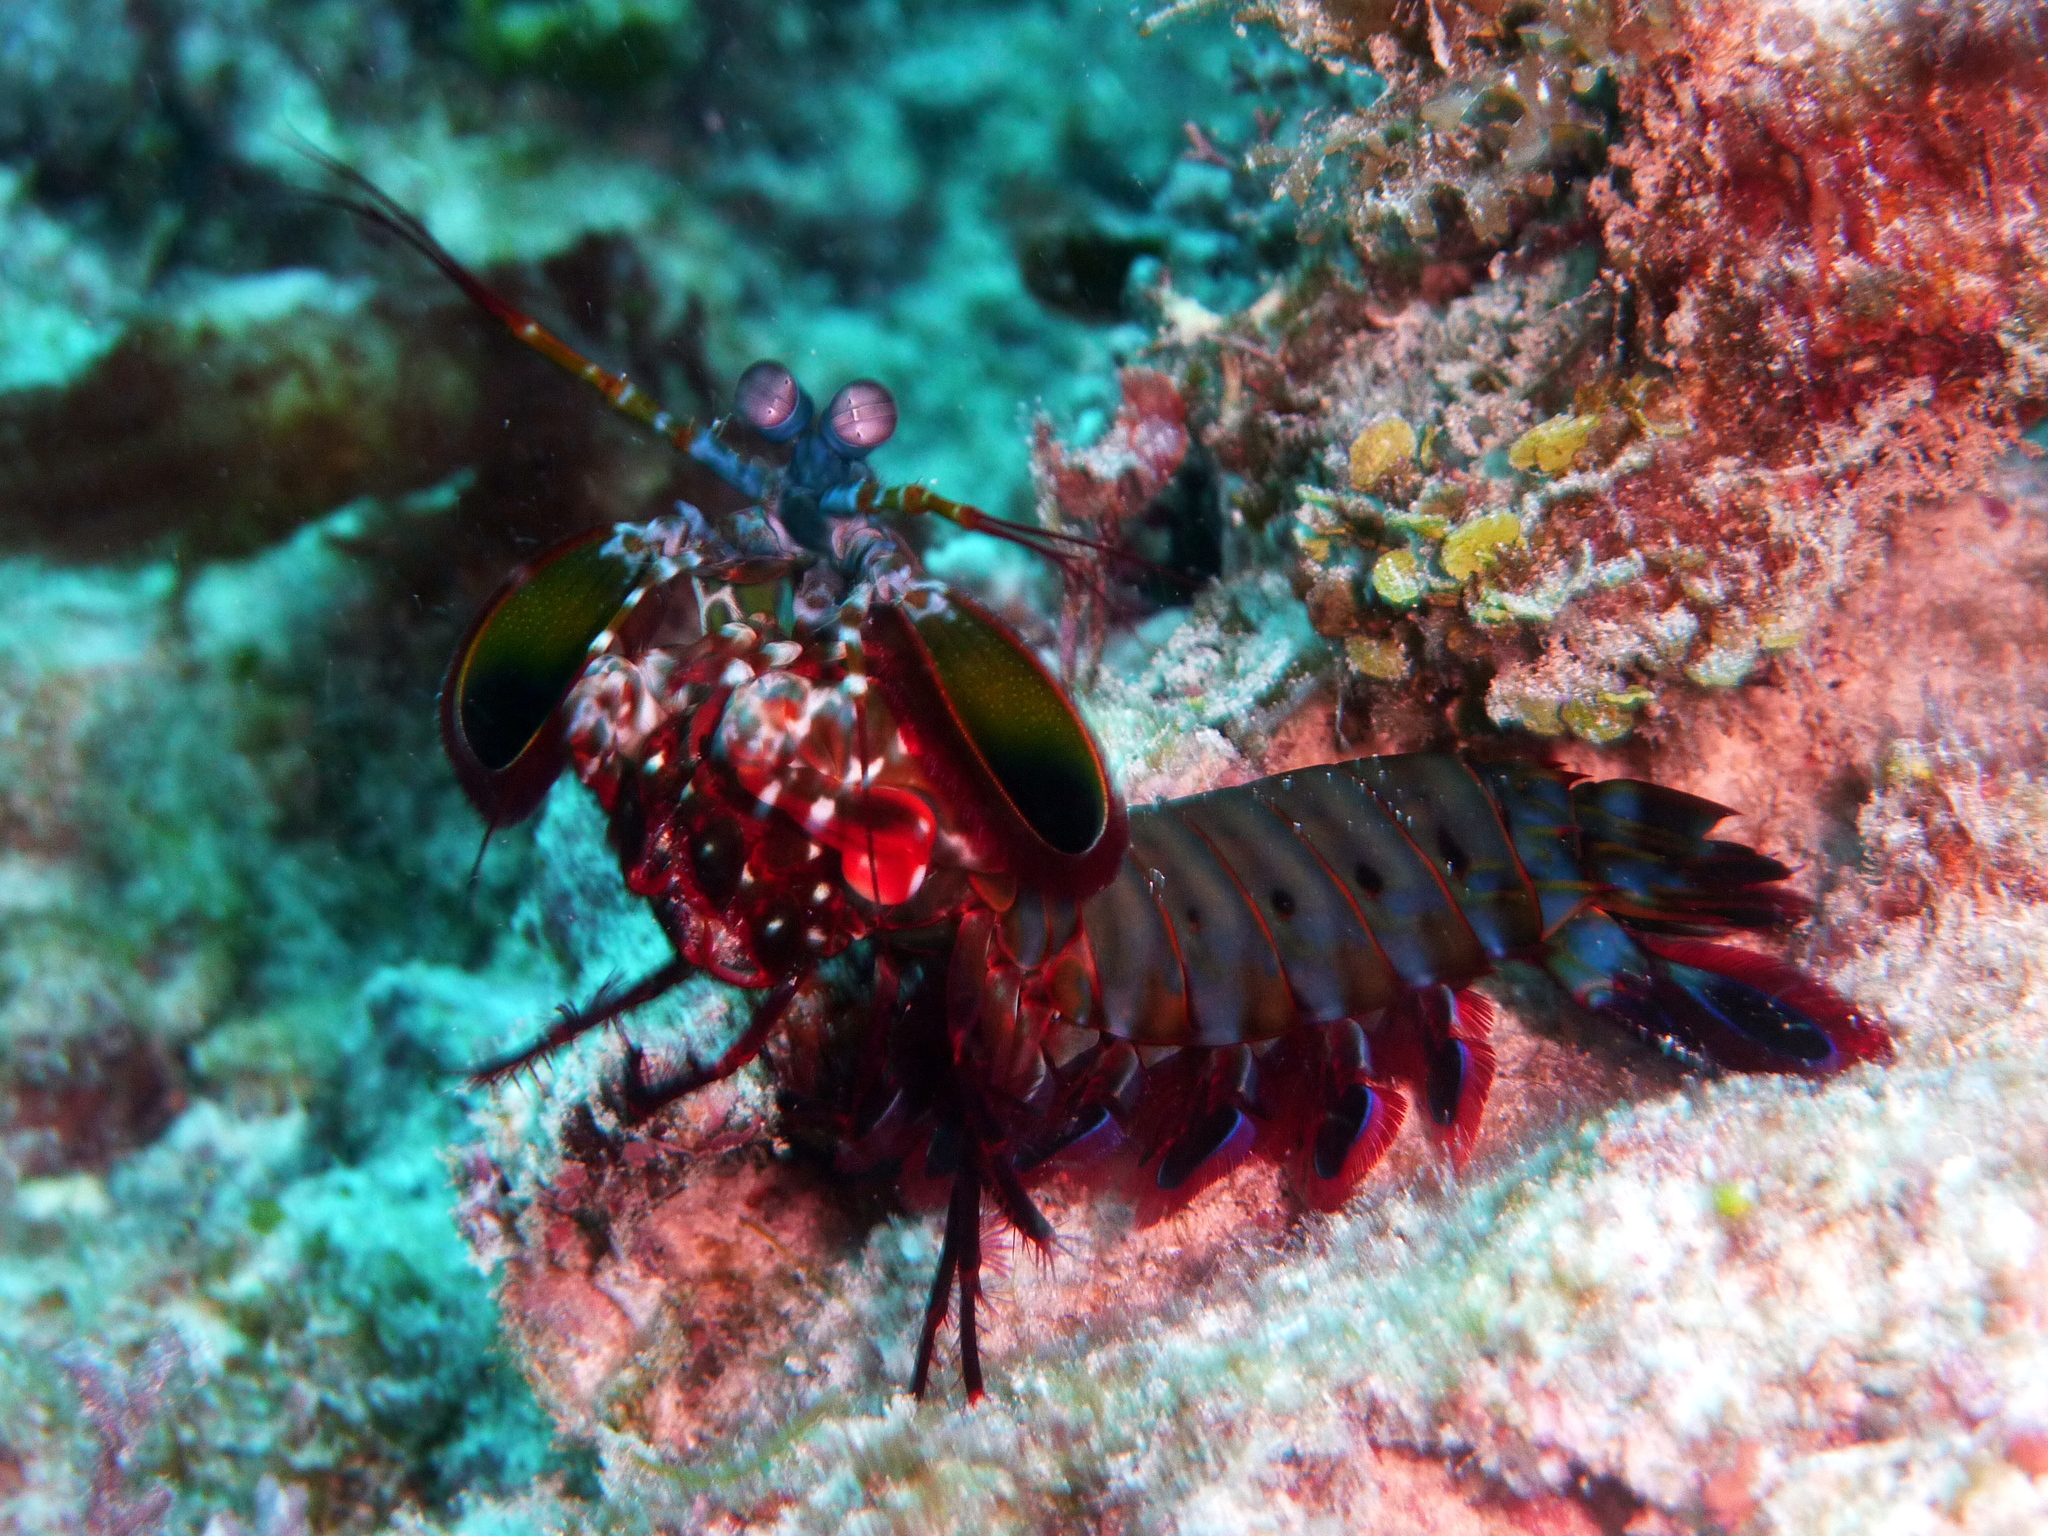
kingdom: Animalia
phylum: Arthropoda
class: Malacostraca
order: Stomatopoda
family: Odontodactylidae
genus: Odontodactylus
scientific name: Odontodactylus scyllarus
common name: Peacock mantis shrimp
